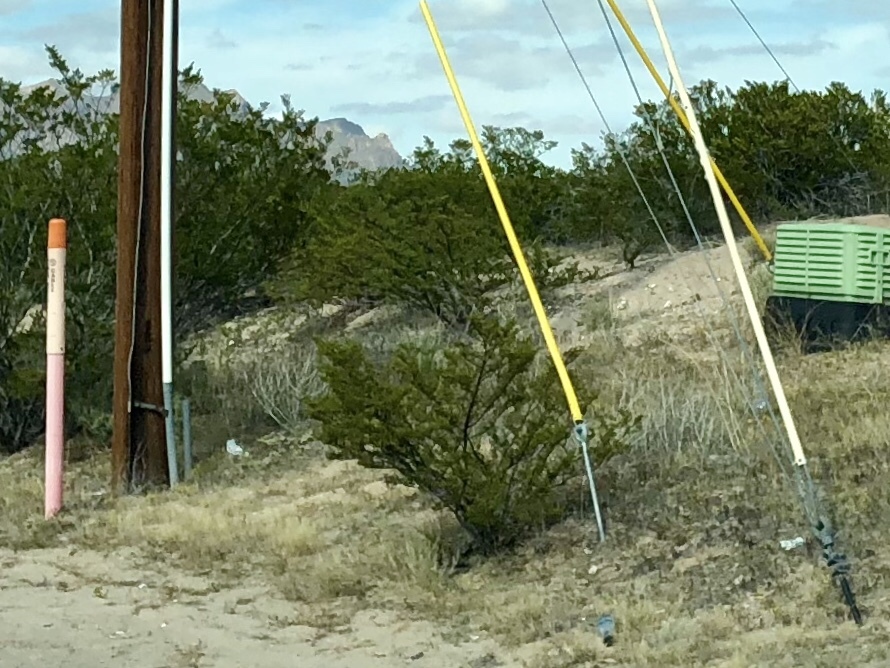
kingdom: Plantae
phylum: Tracheophyta
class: Magnoliopsida
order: Zygophyllales
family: Zygophyllaceae
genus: Larrea
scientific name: Larrea tridentata
